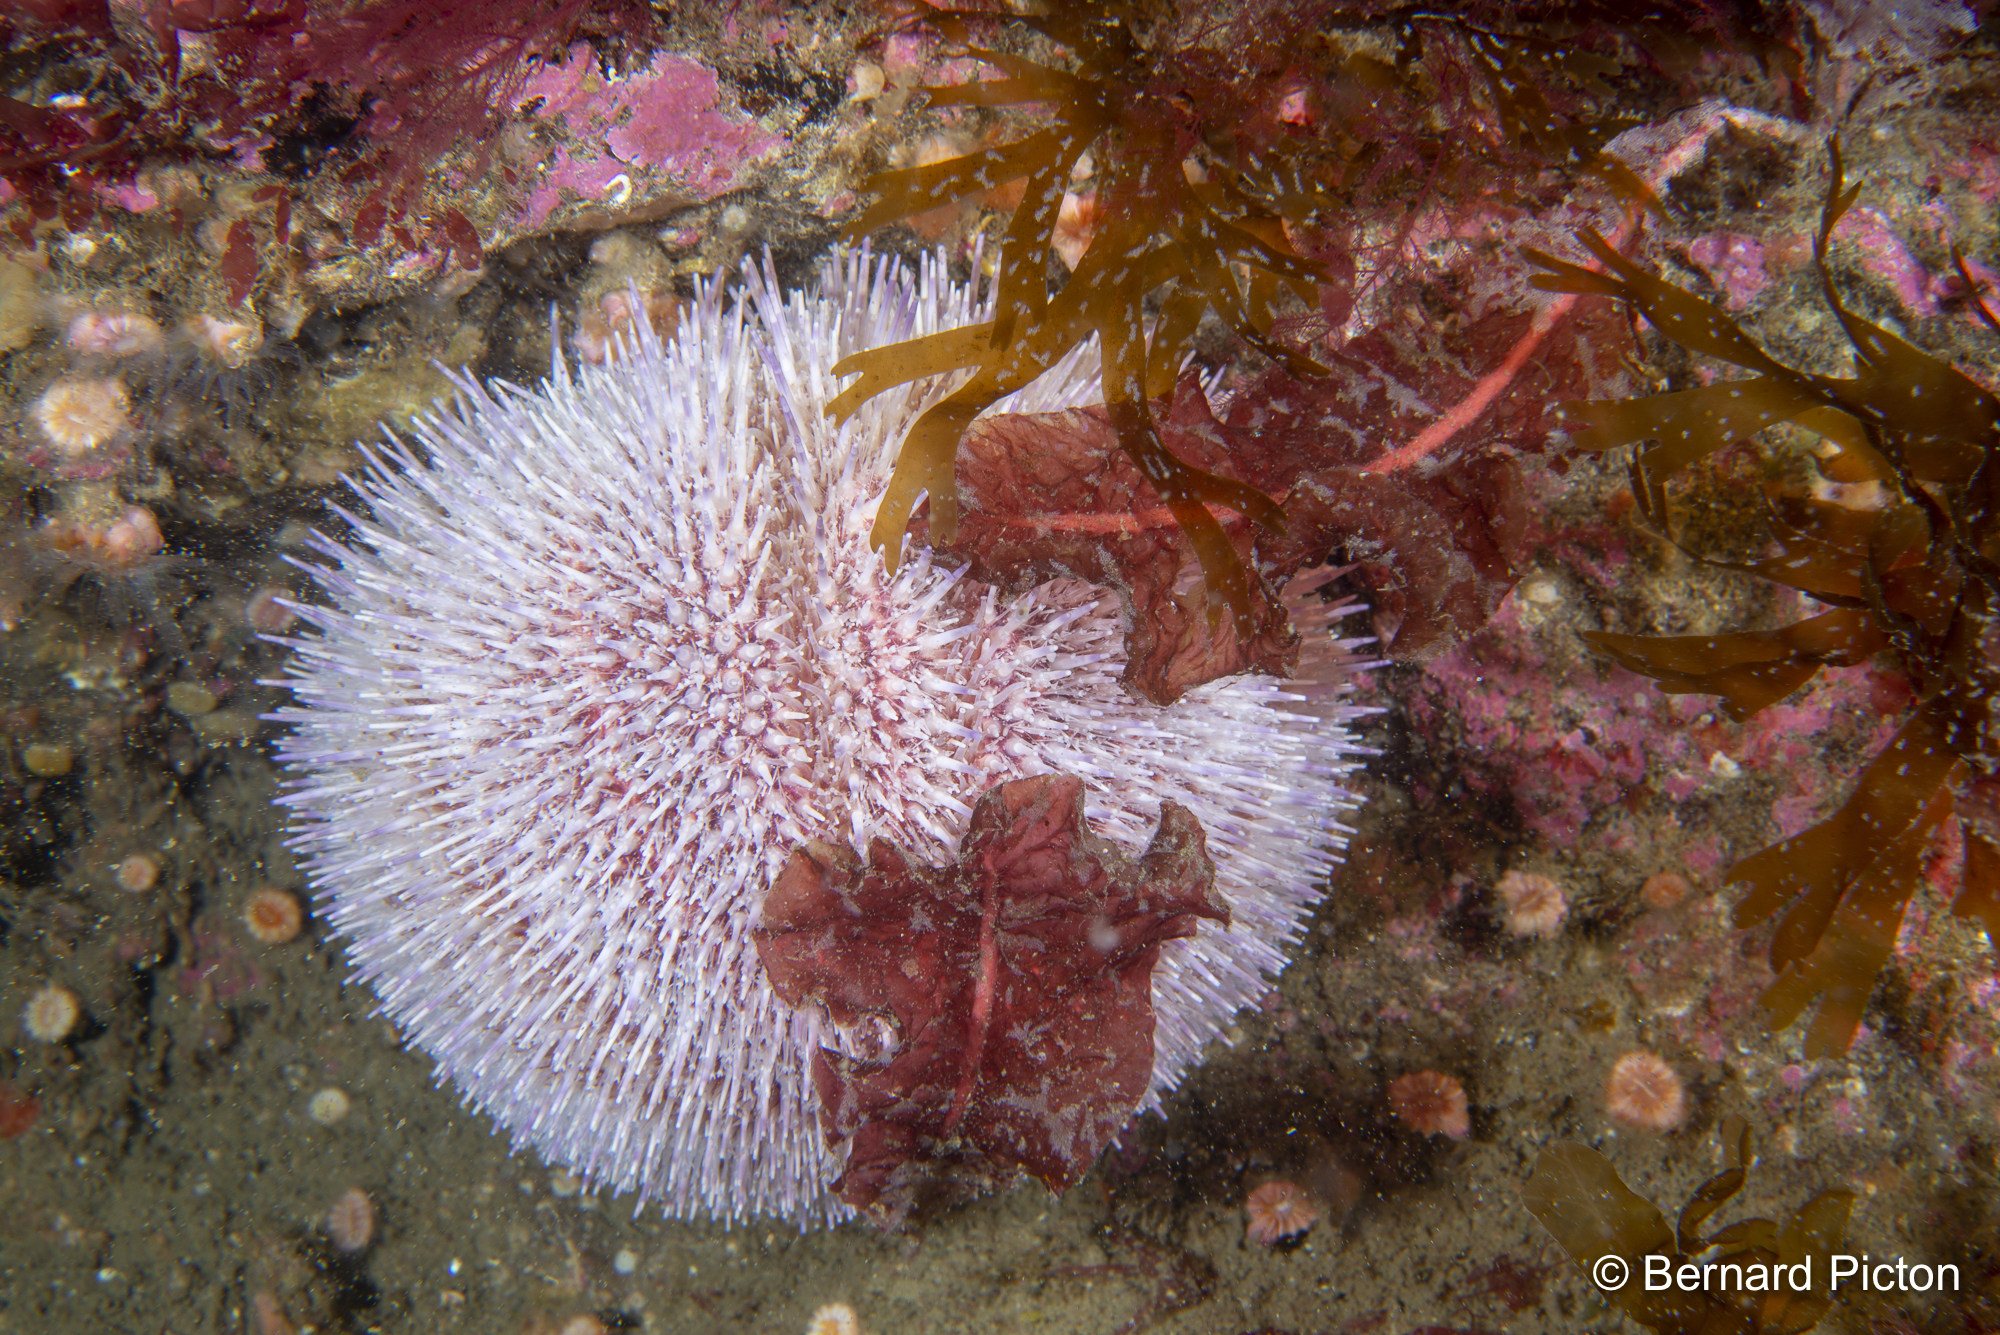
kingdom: Animalia
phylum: Echinodermata
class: Echinoidea
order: Camarodonta
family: Echinidae
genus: Echinus
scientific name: Echinus esculentus
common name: Edible sea urchin
